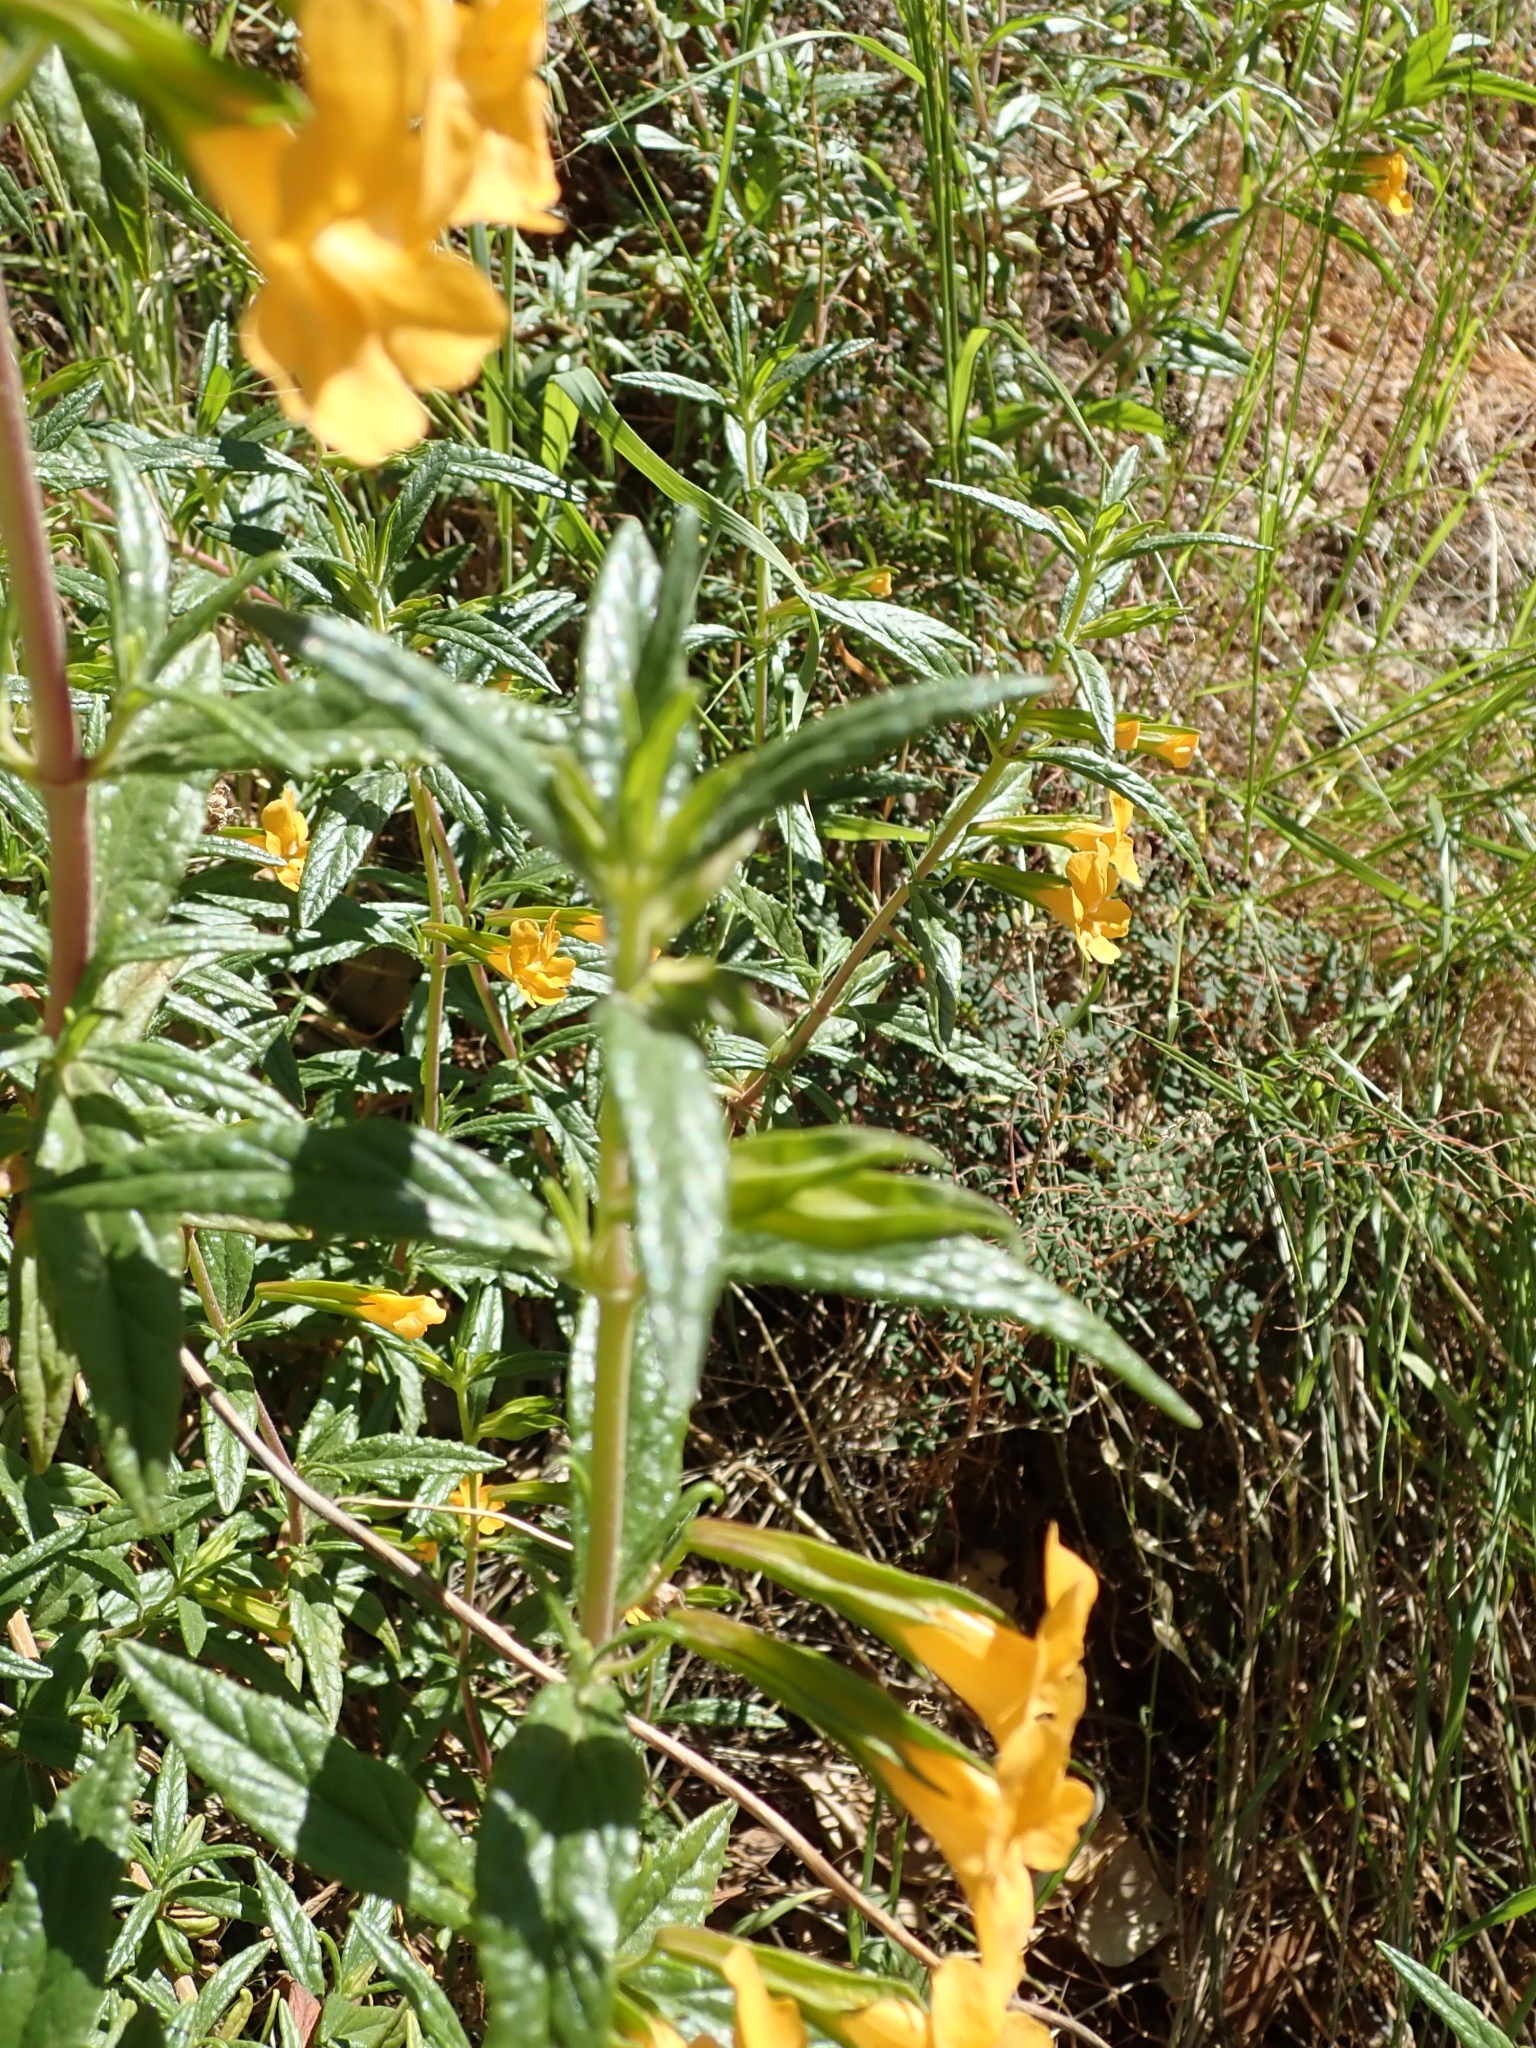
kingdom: Plantae
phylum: Tracheophyta
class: Magnoliopsida
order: Lamiales
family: Phrymaceae
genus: Diplacus
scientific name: Diplacus aurantiacus
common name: Bush monkey-flower
